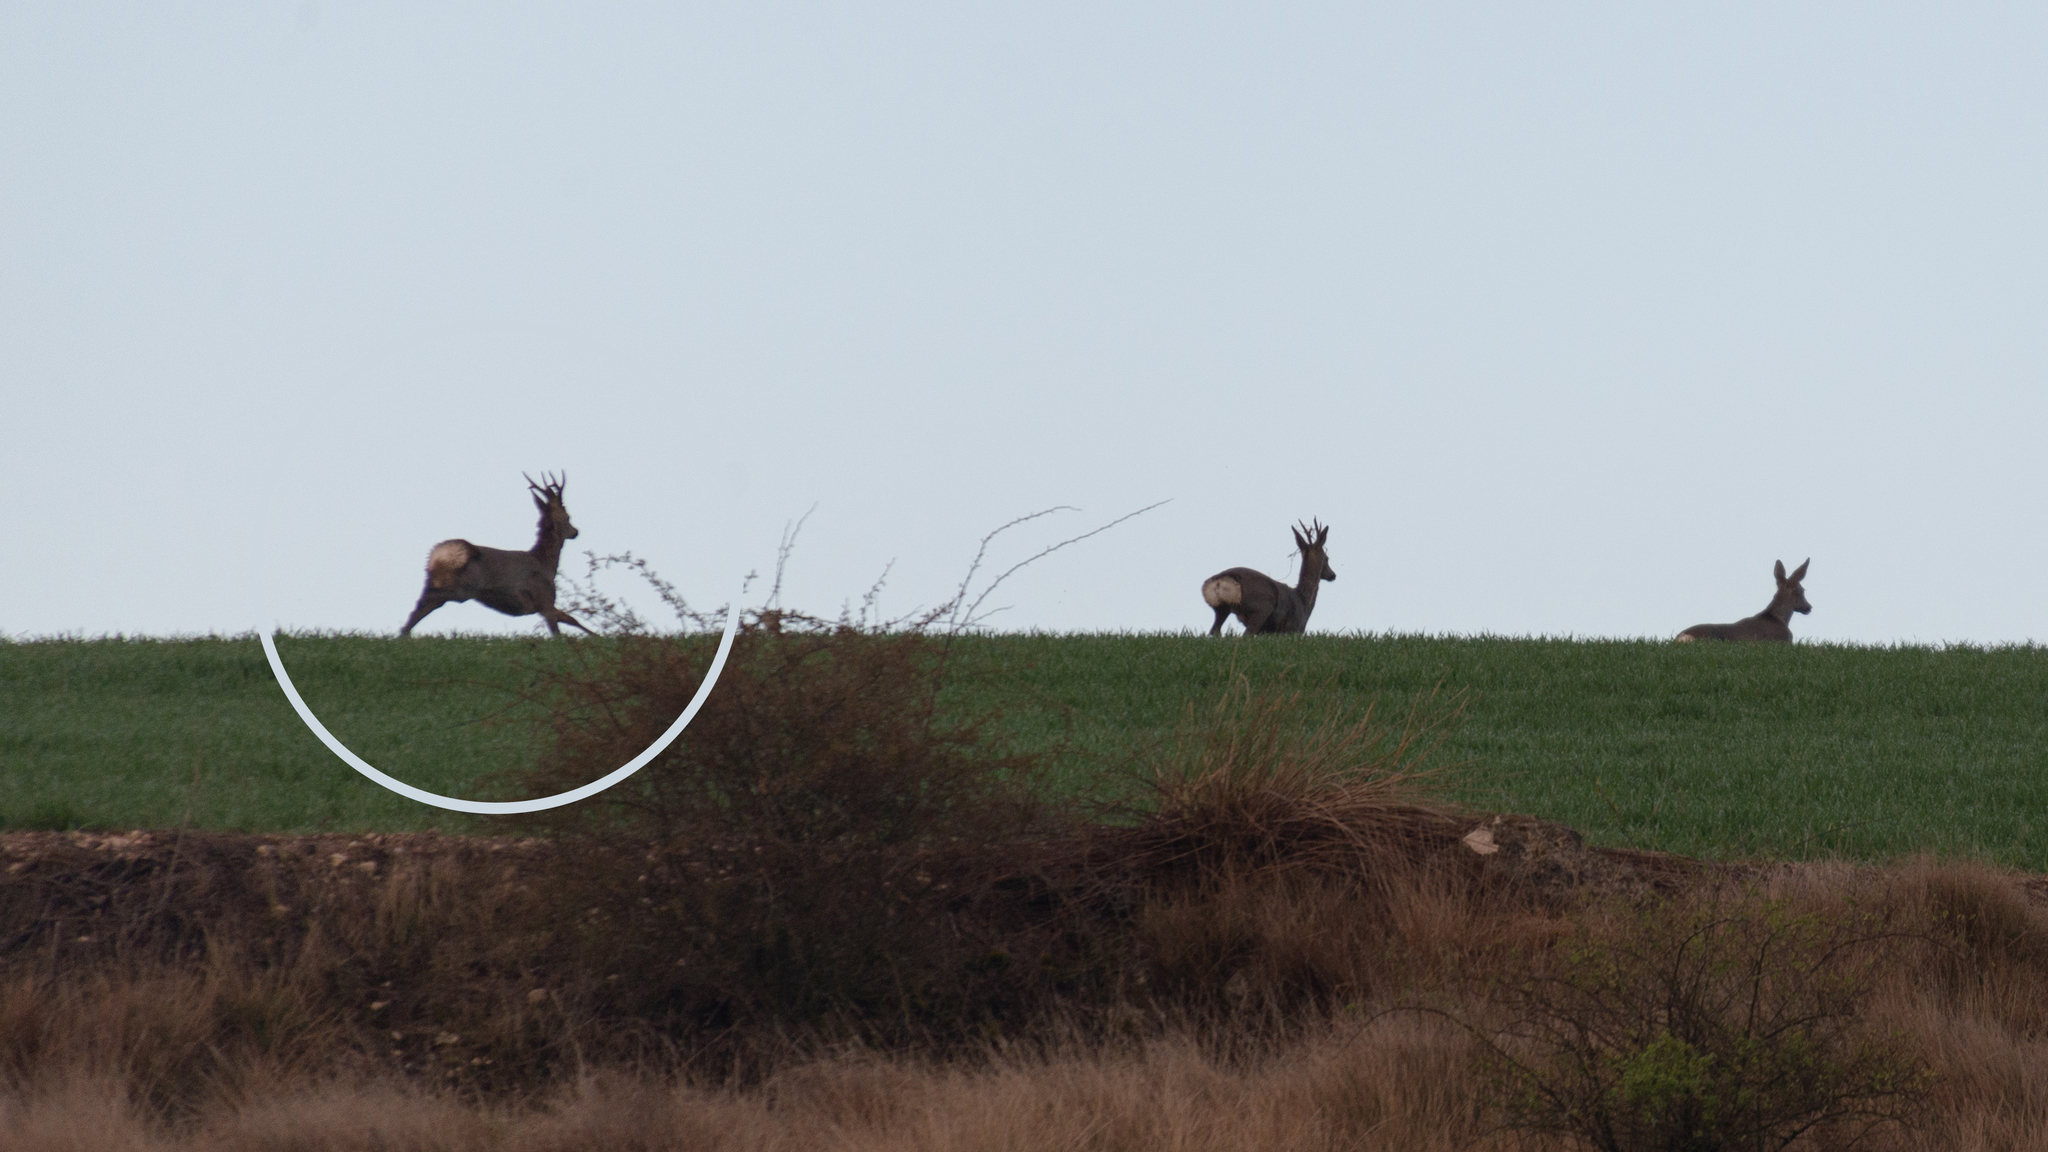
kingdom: Animalia
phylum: Chordata
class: Mammalia
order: Artiodactyla
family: Cervidae
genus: Capreolus
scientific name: Capreolus capreolus
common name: Western roe deer
